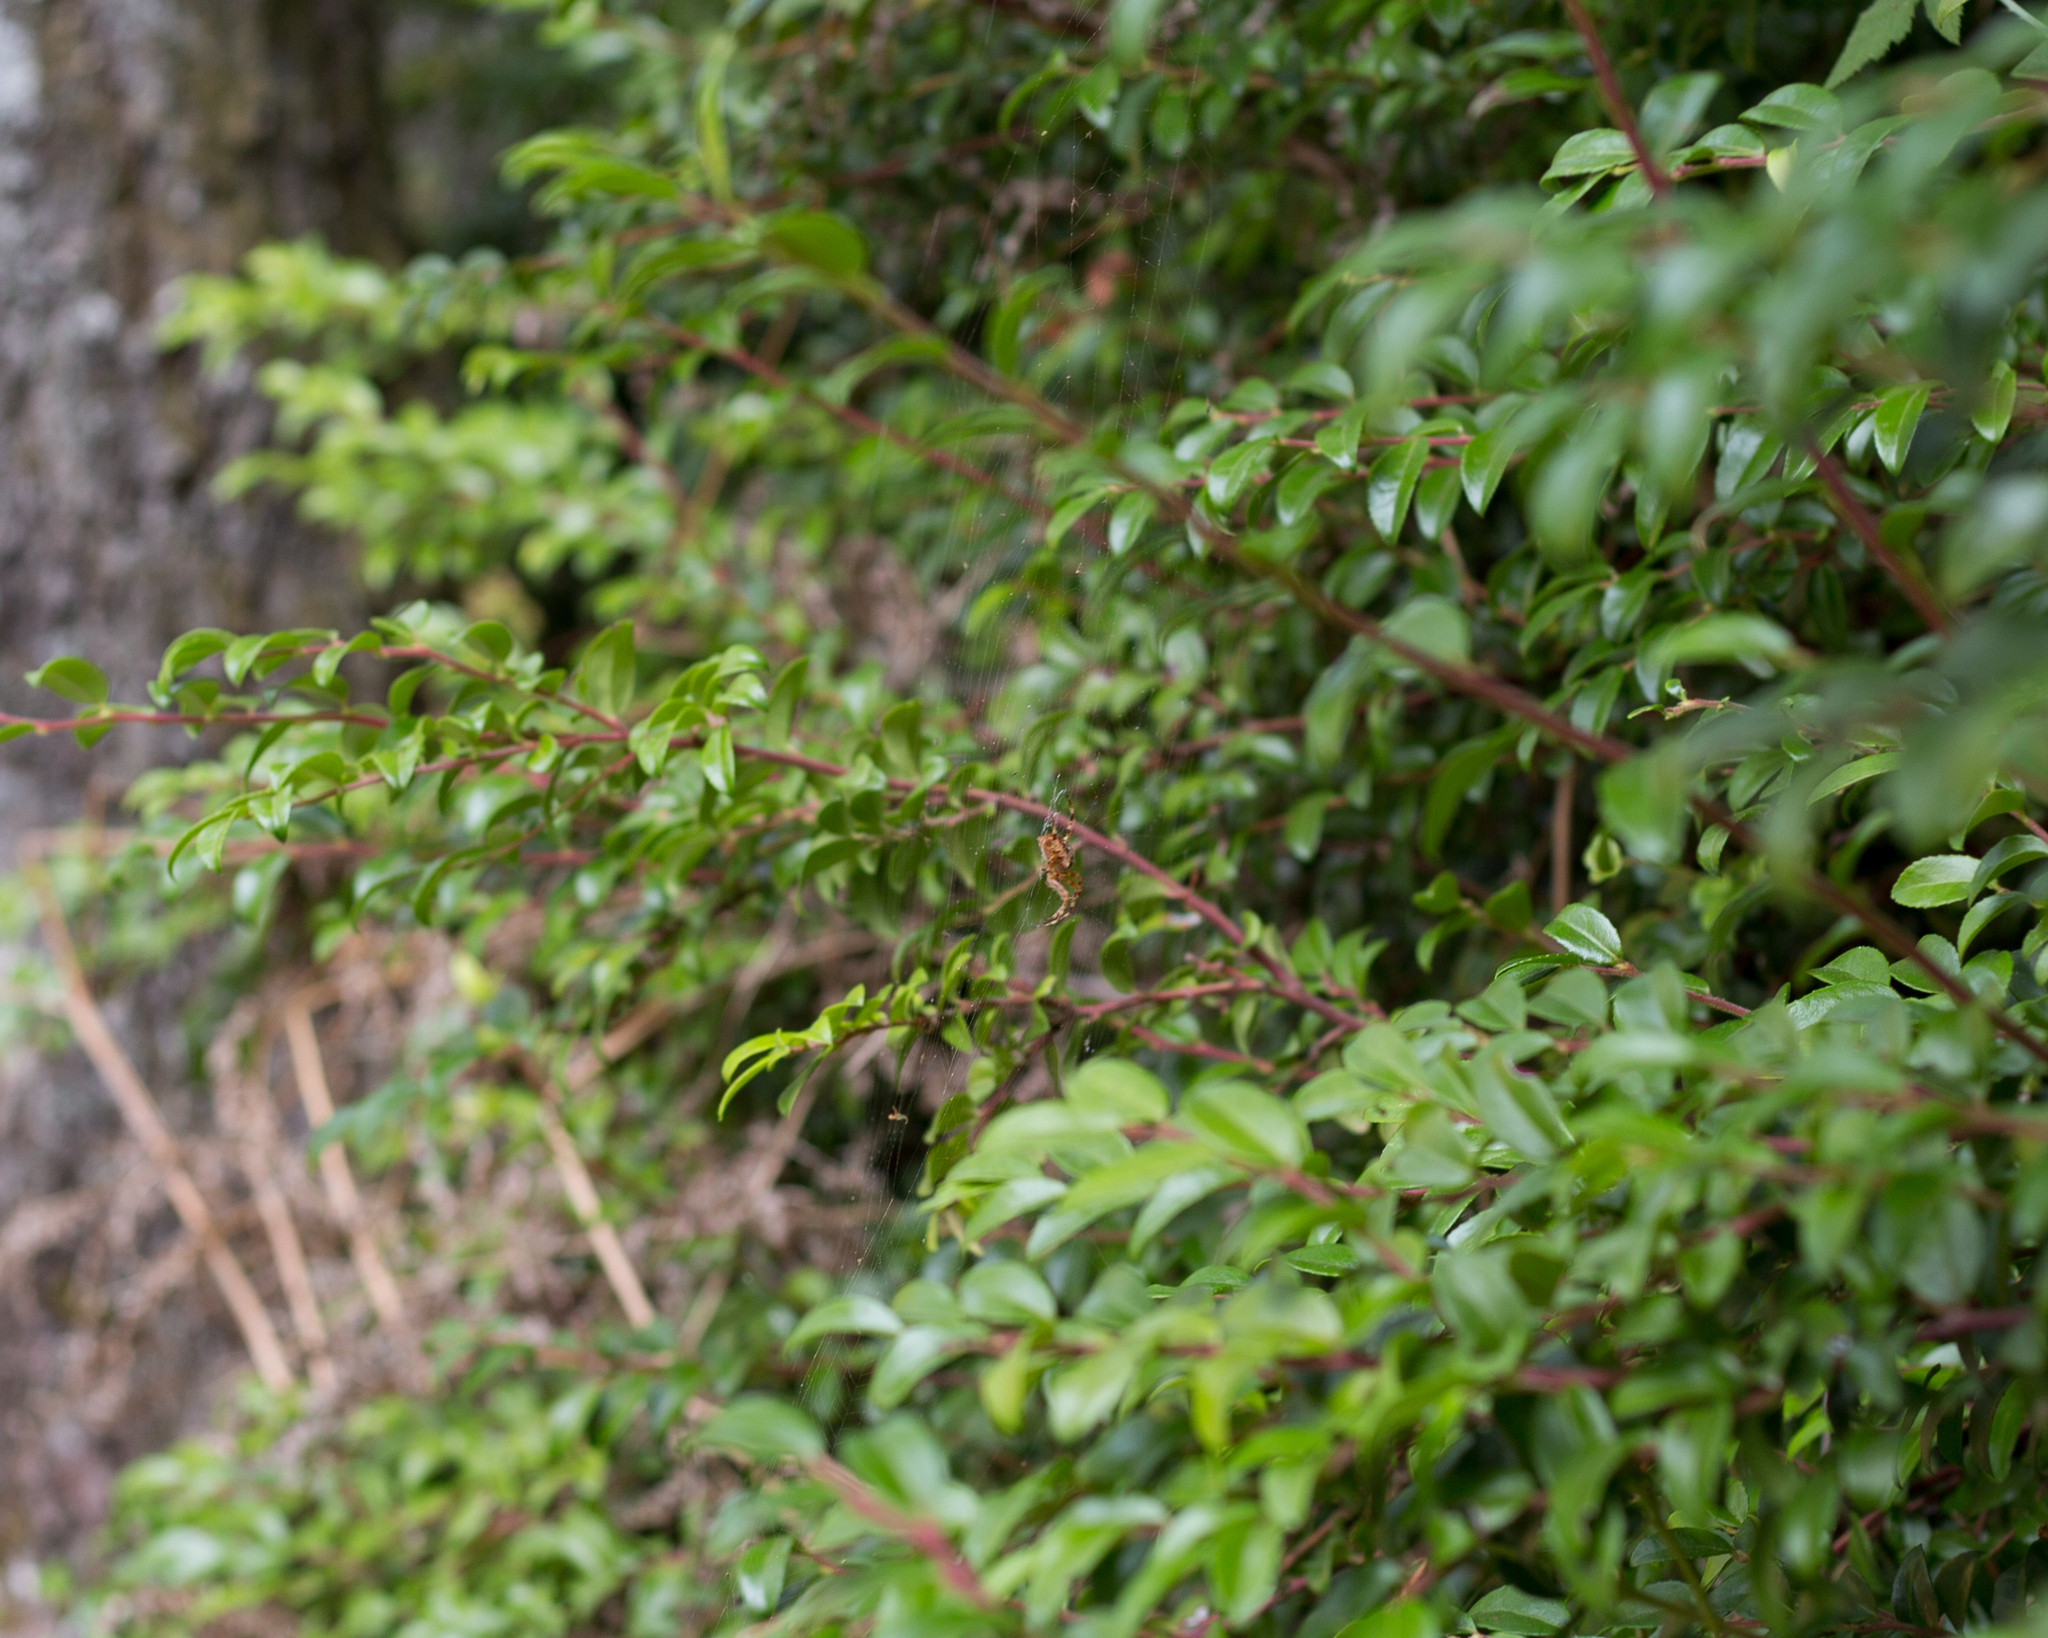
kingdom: Animalia
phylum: Arthropoda
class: Arachnida
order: Araneae
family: Araneidae
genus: Araneus
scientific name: Araneus diadematus
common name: Cross orbweaver
